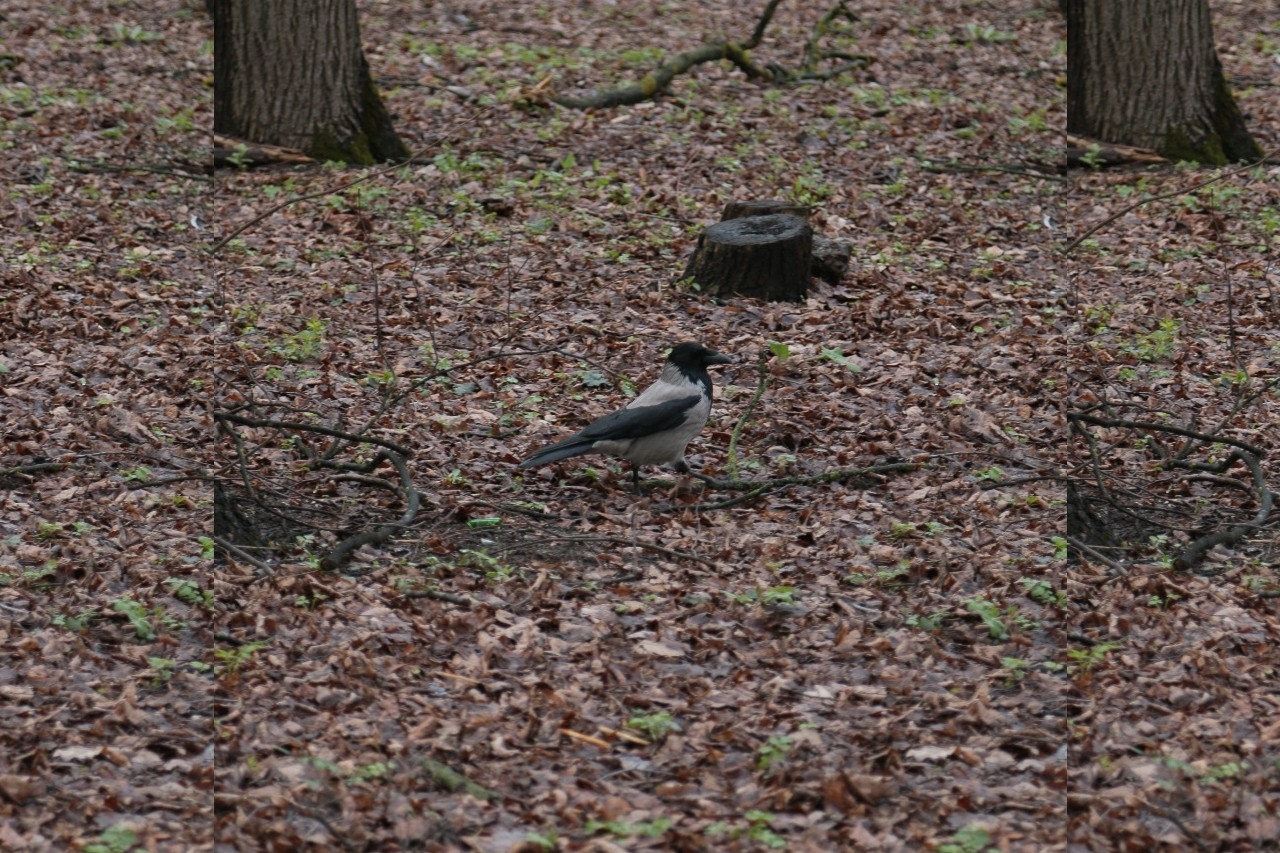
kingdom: Animalia
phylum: Chordata
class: Aves
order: Passeriformes
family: Corvidae
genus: Corvus
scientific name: Corvus cornix
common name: Hooded crow
